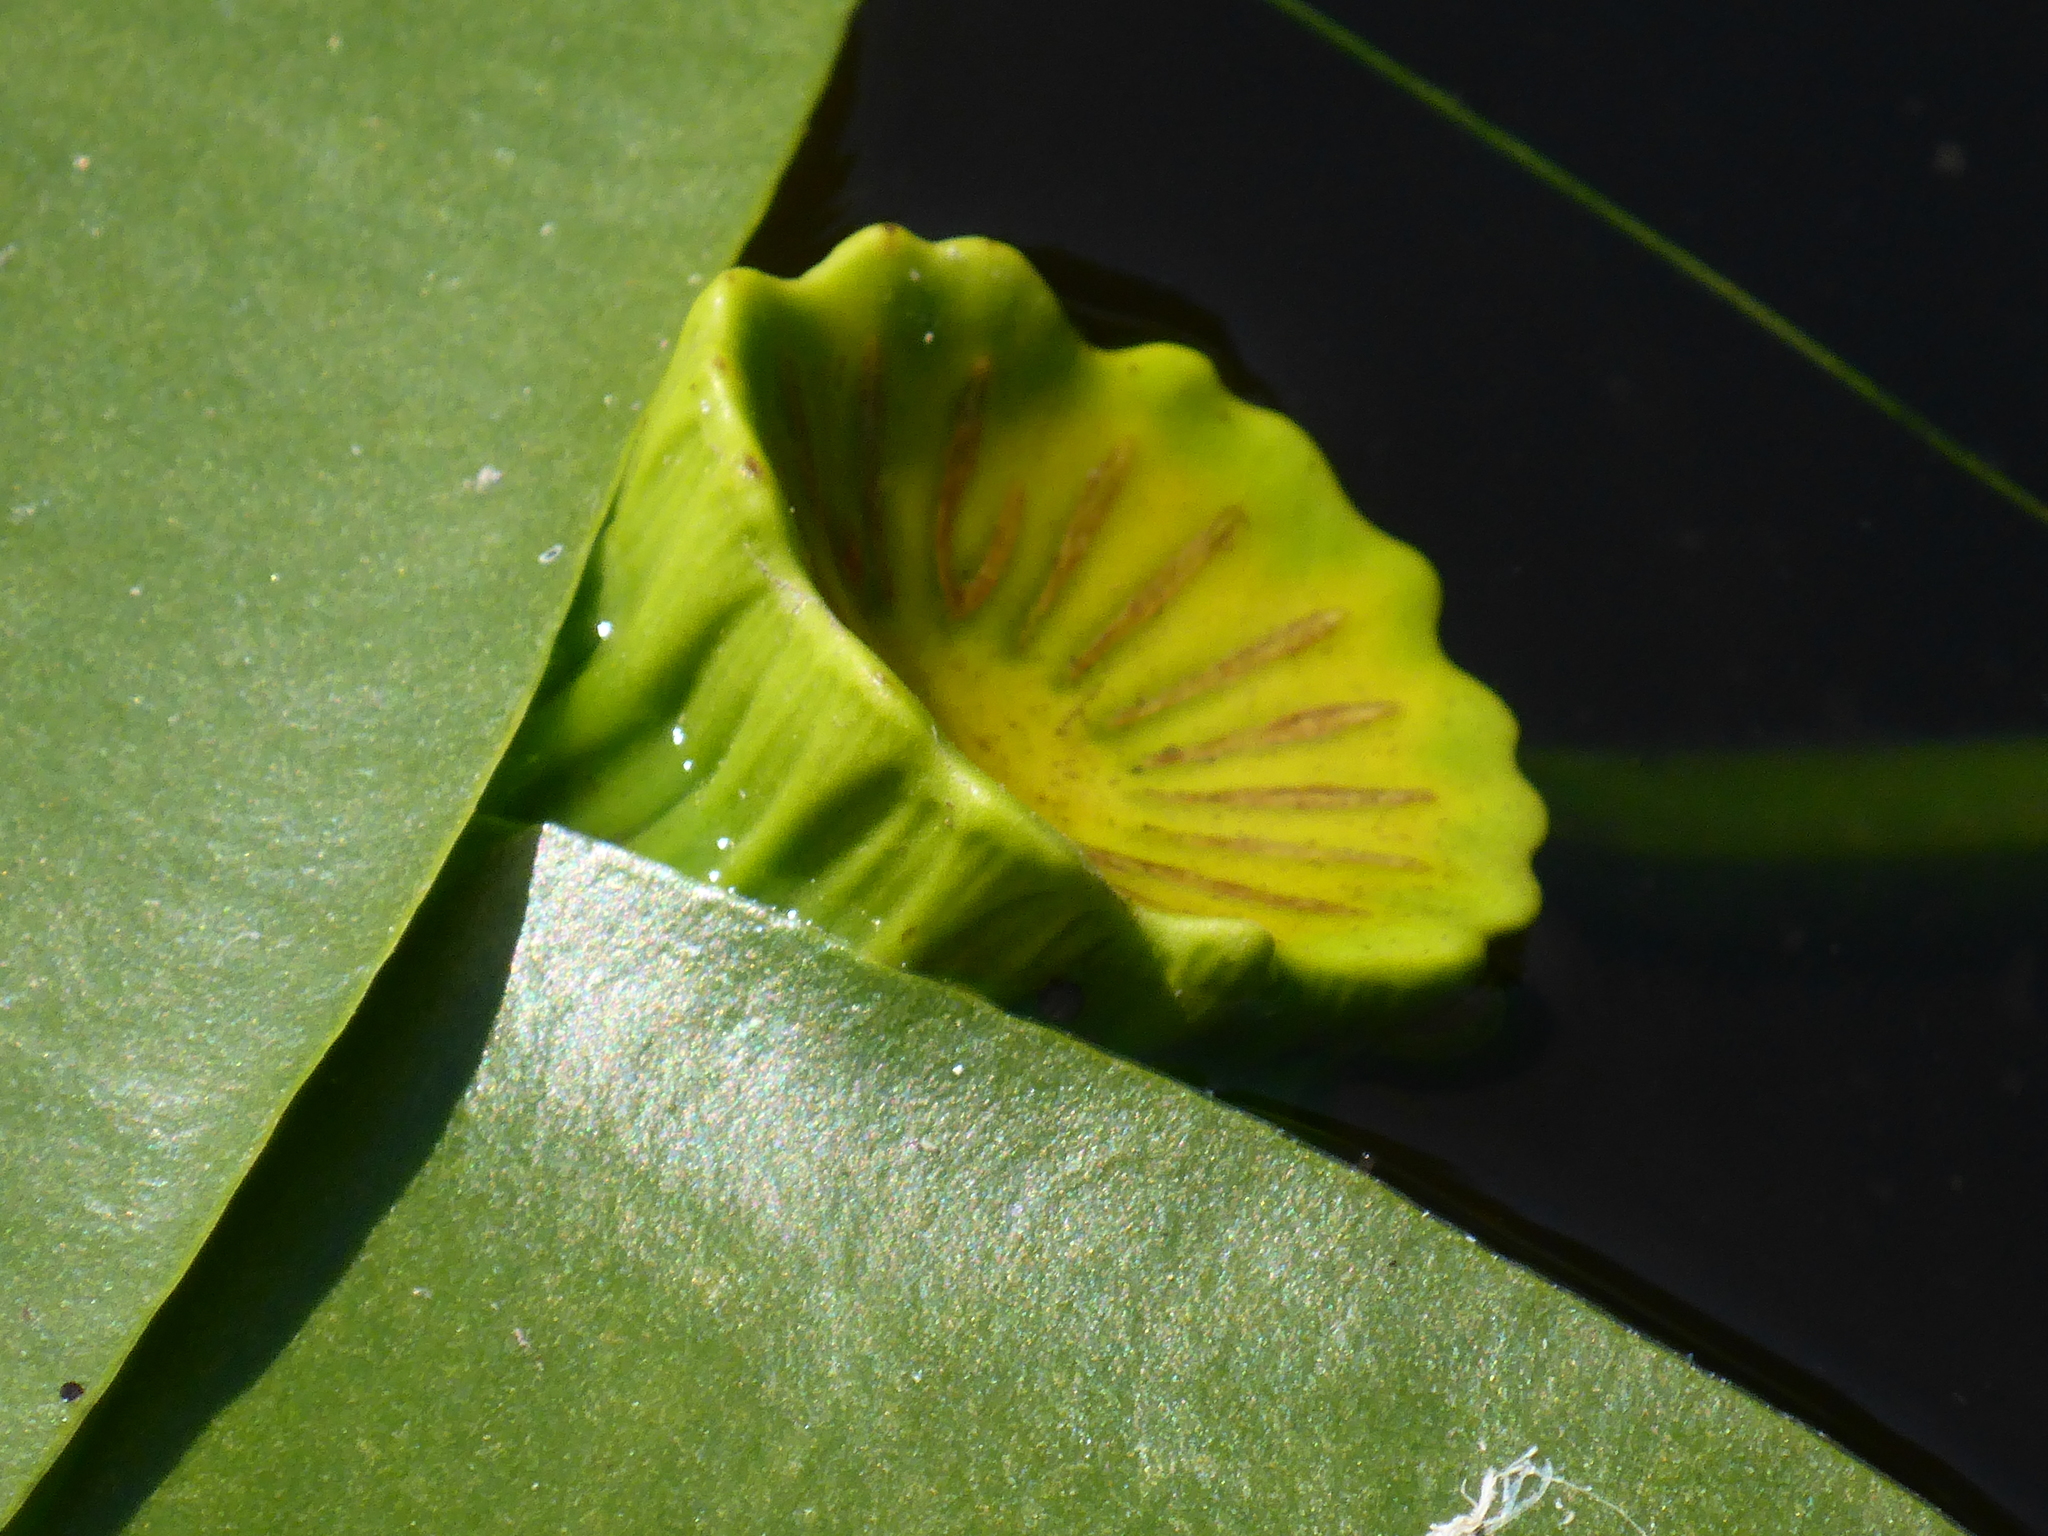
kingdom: Plantae
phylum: Tracheophyta
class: Magnoliopsida
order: Nymphaeales
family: Nymphaeaceae
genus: Nuphar
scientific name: Nuphar variegata
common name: Beaver-root
